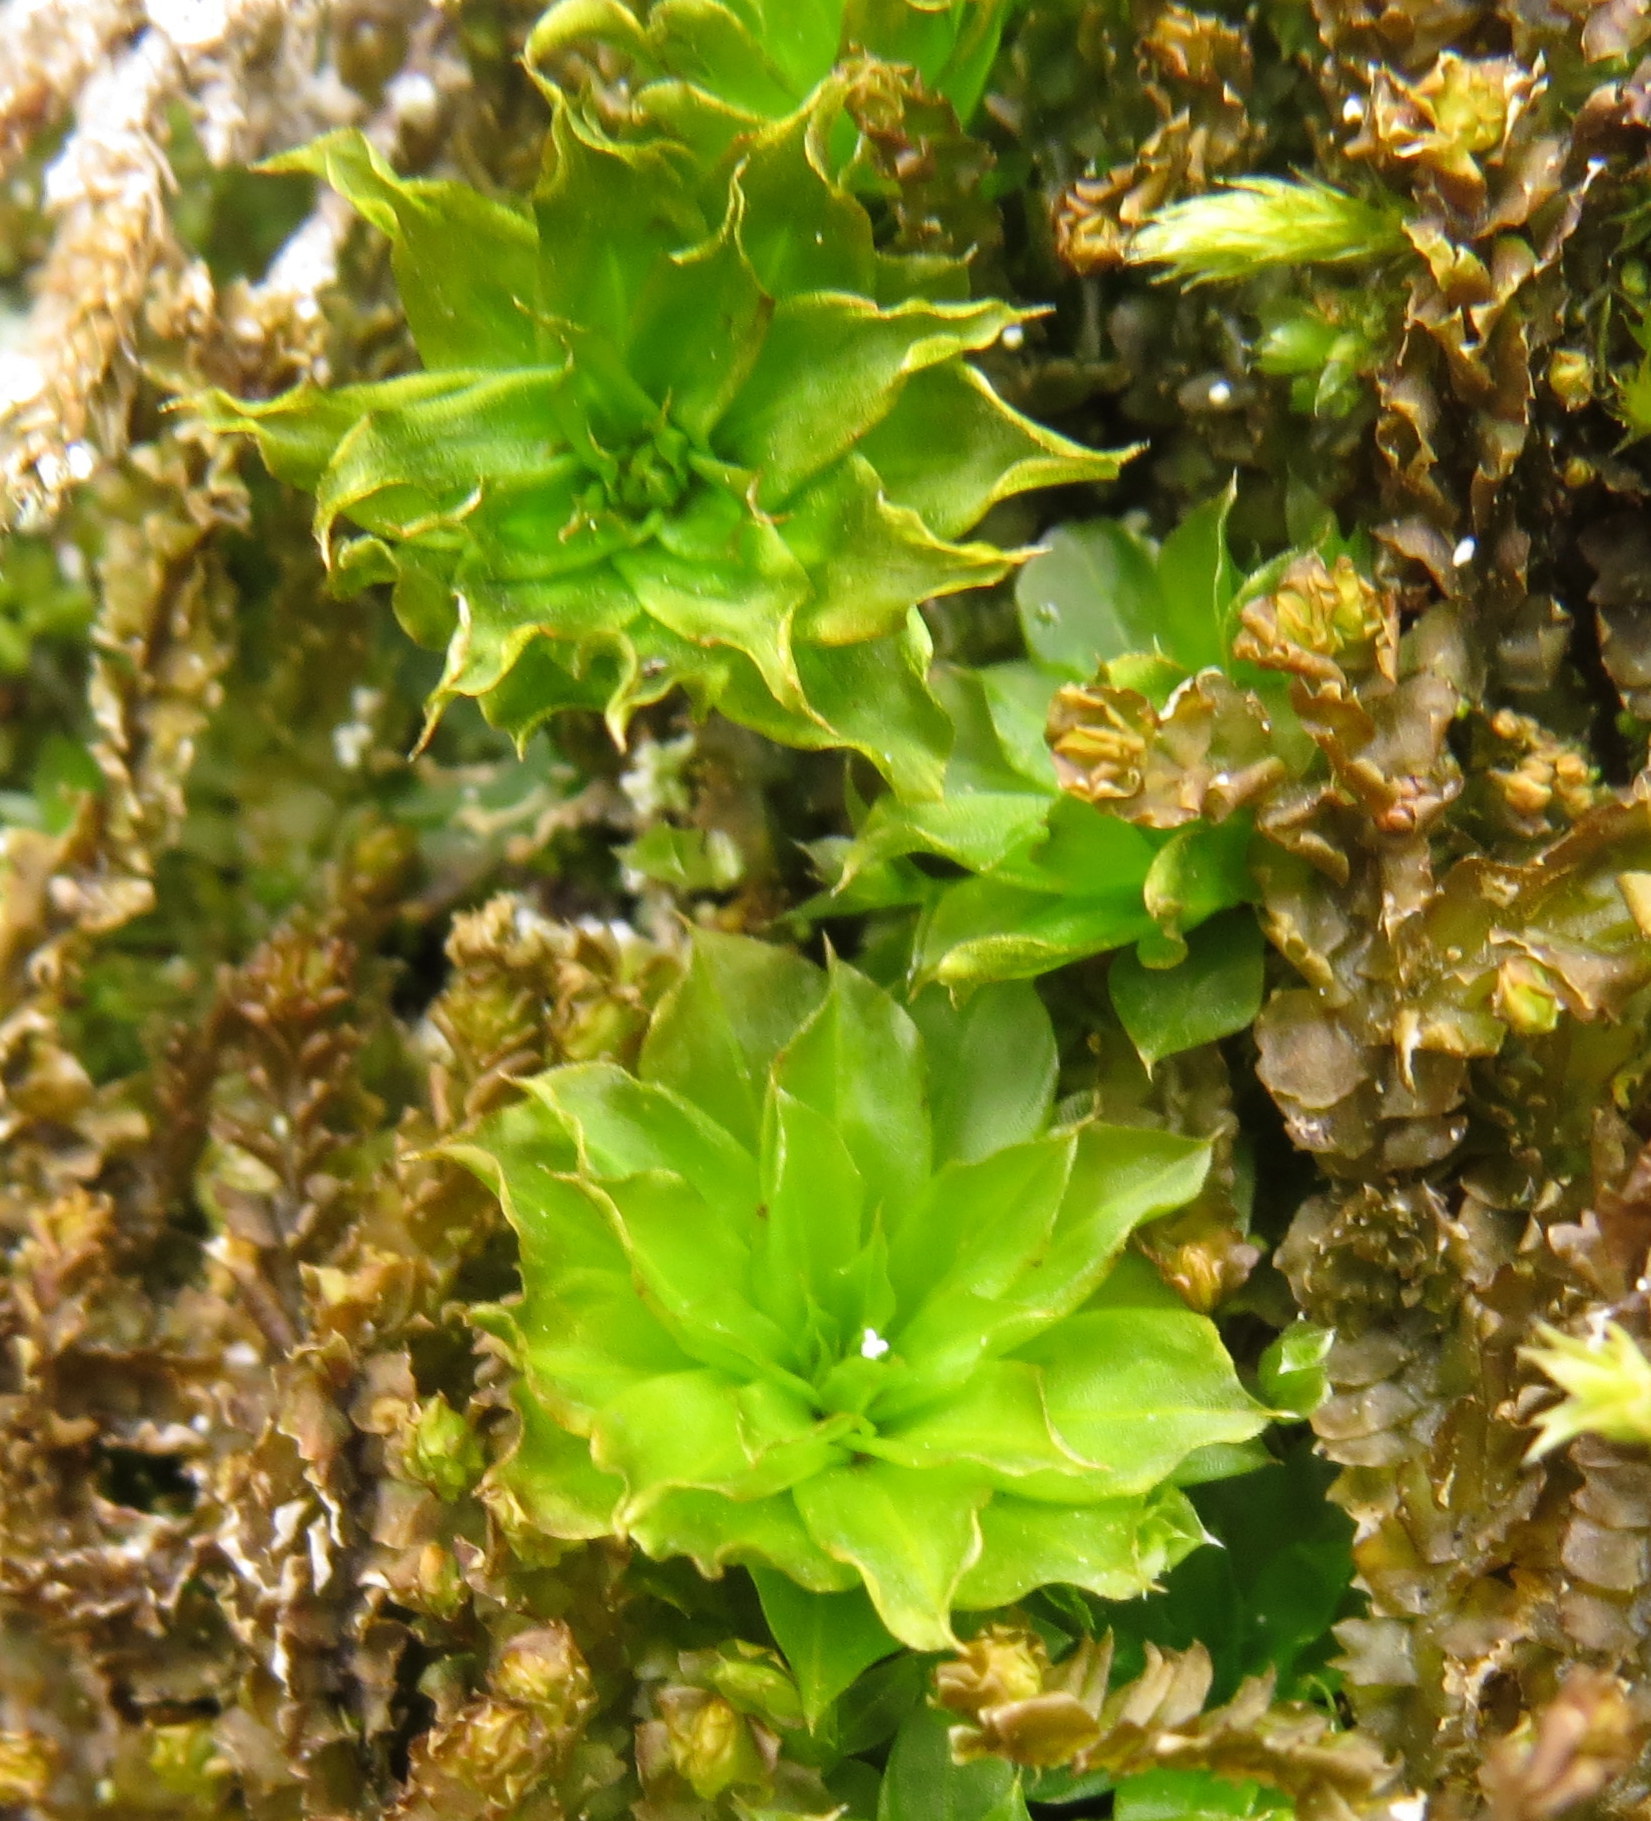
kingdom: Plantae
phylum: Bryophyta
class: Bryopsida
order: Bryales
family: Bryaceae
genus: Rhodobryum
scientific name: Rhodobryum ontariense
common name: Ontario rhodobryum moss
